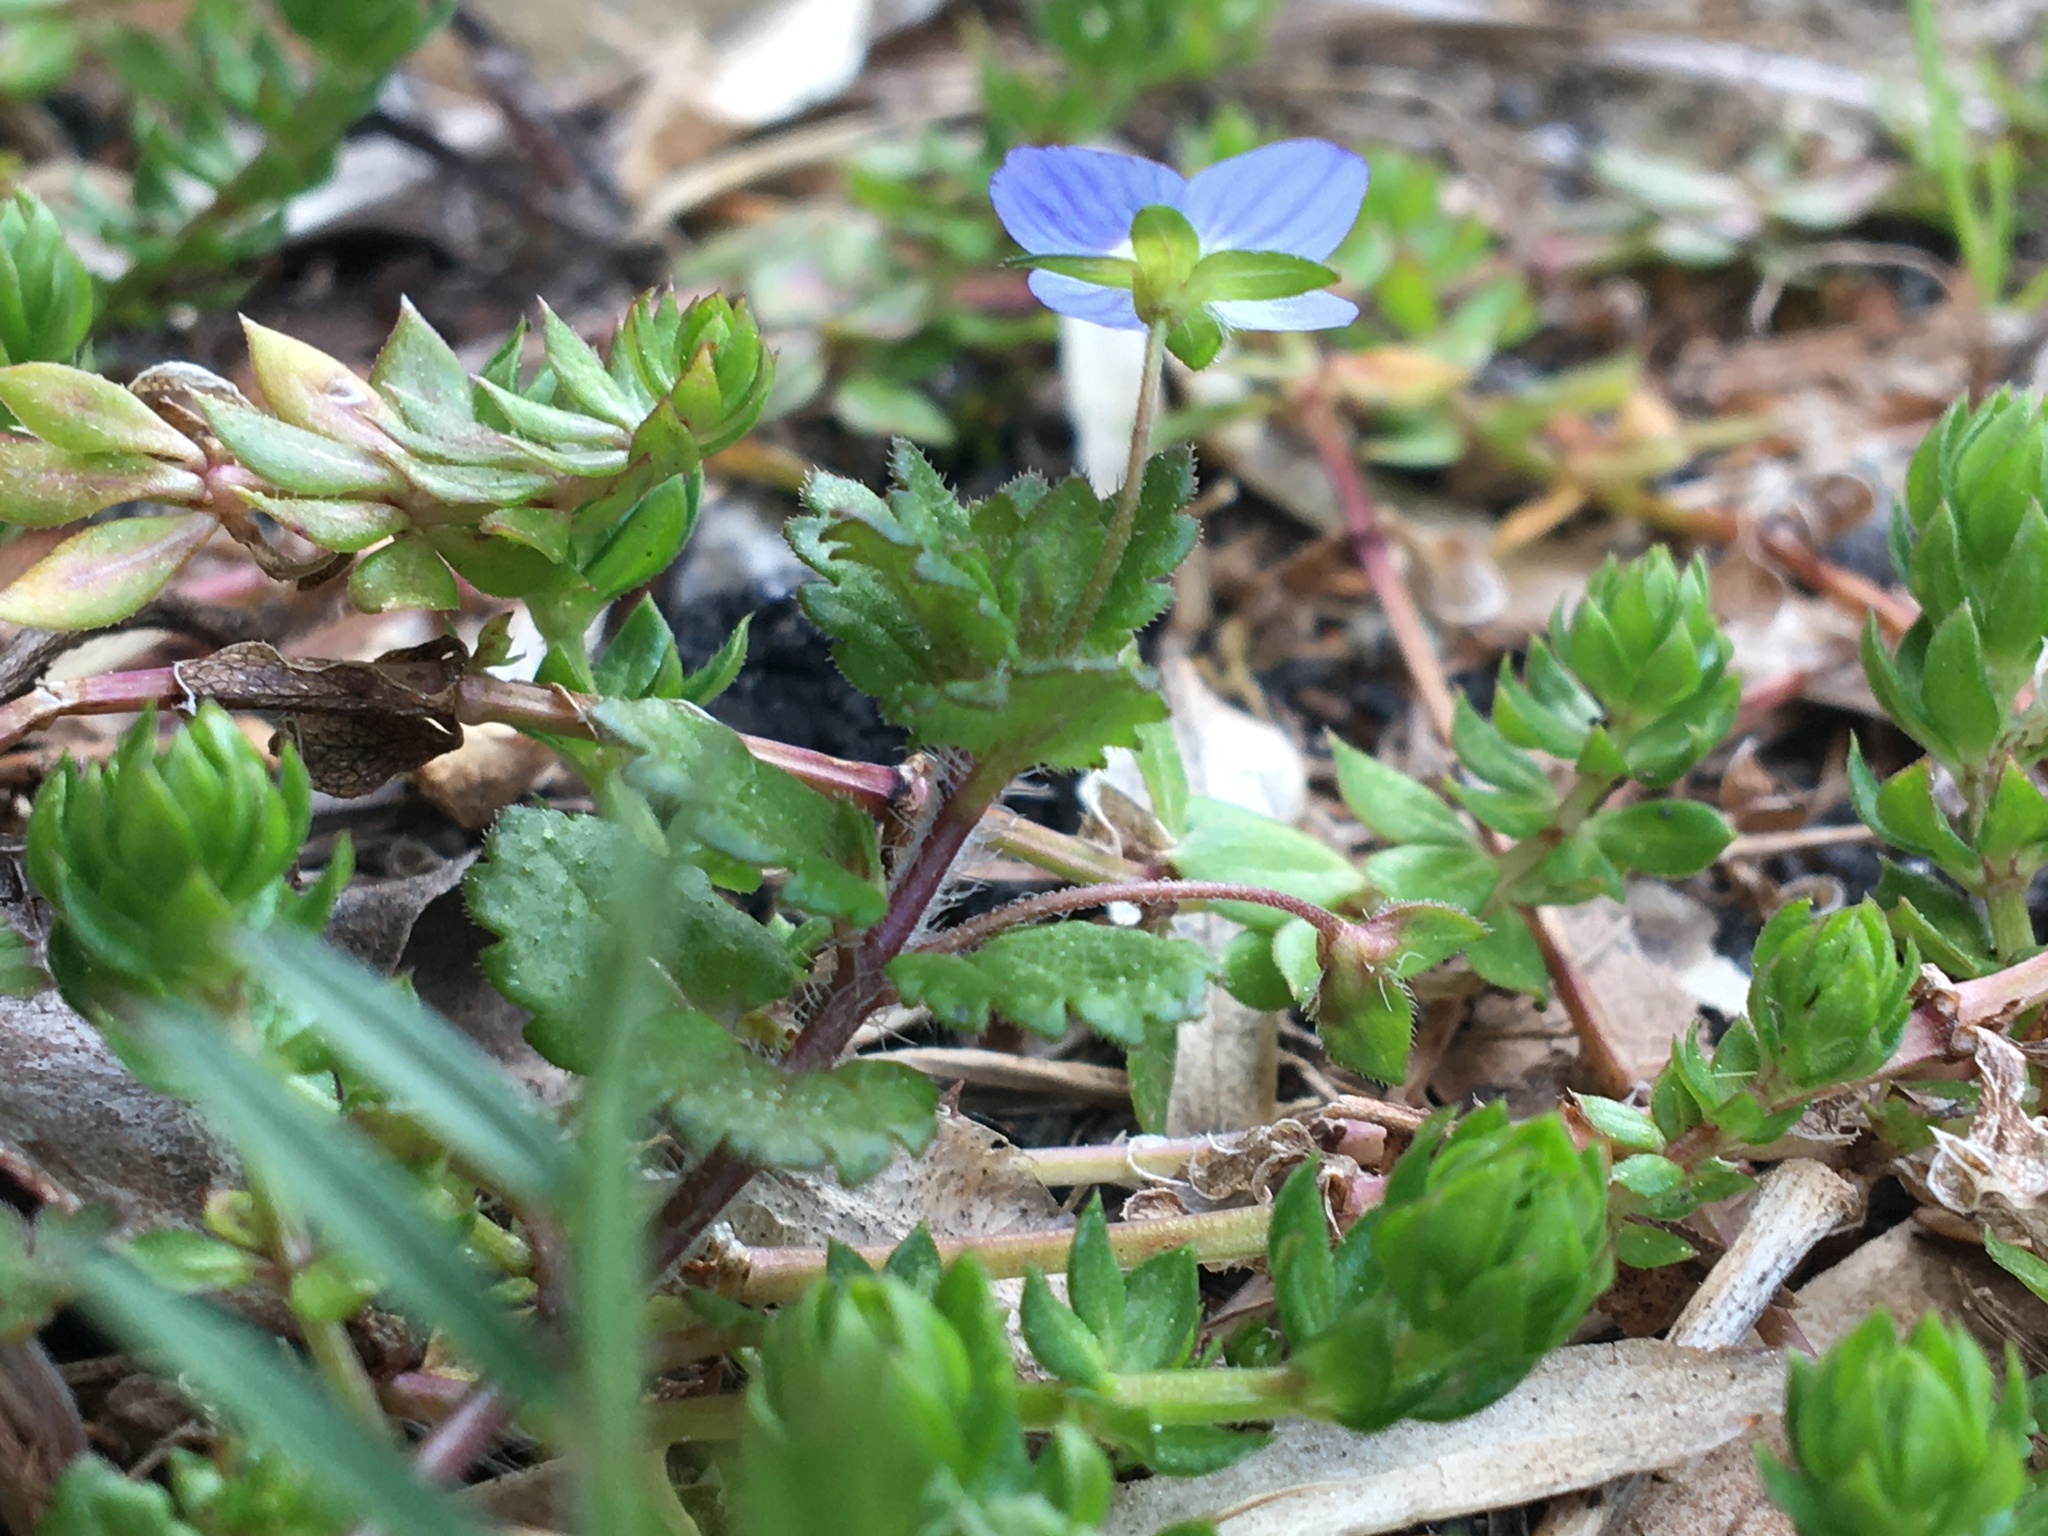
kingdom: Plantae
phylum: Tracheophyta
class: Magnoliopsida
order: Lamiales
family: Plantaginaceae
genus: Veronica
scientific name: Veronica persica
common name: Common field-speedwell
